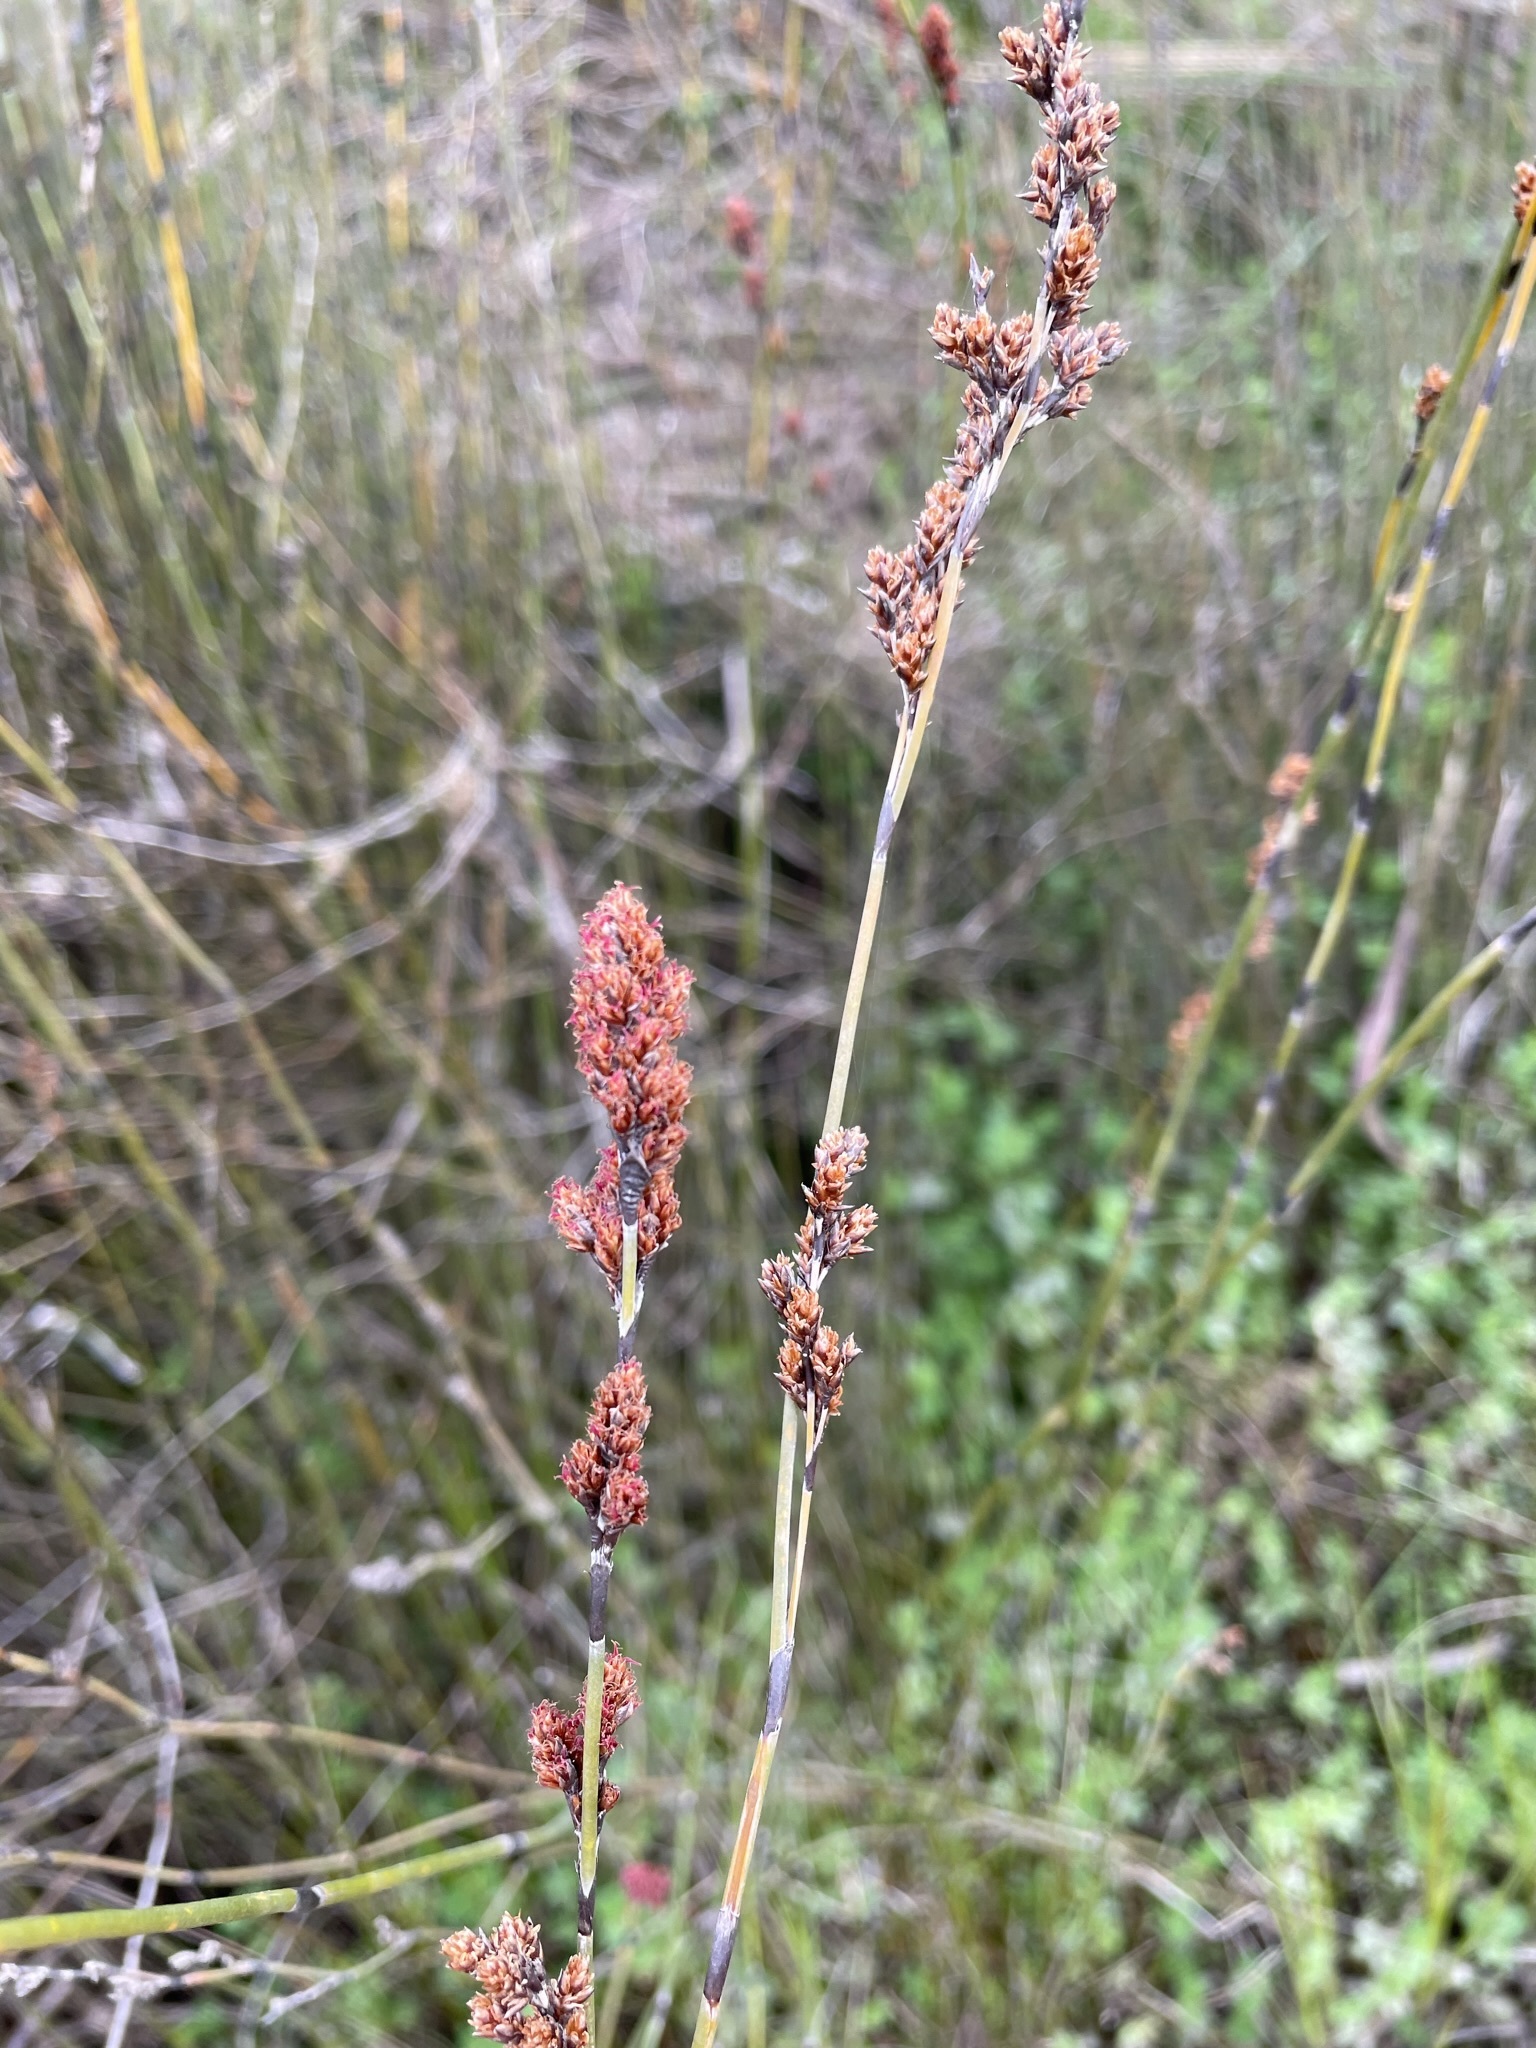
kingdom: Plantae
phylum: Tracheophyta
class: Liliopsida
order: Poales
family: Restionaceae
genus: Apodasmia
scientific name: Apodasmia similis
